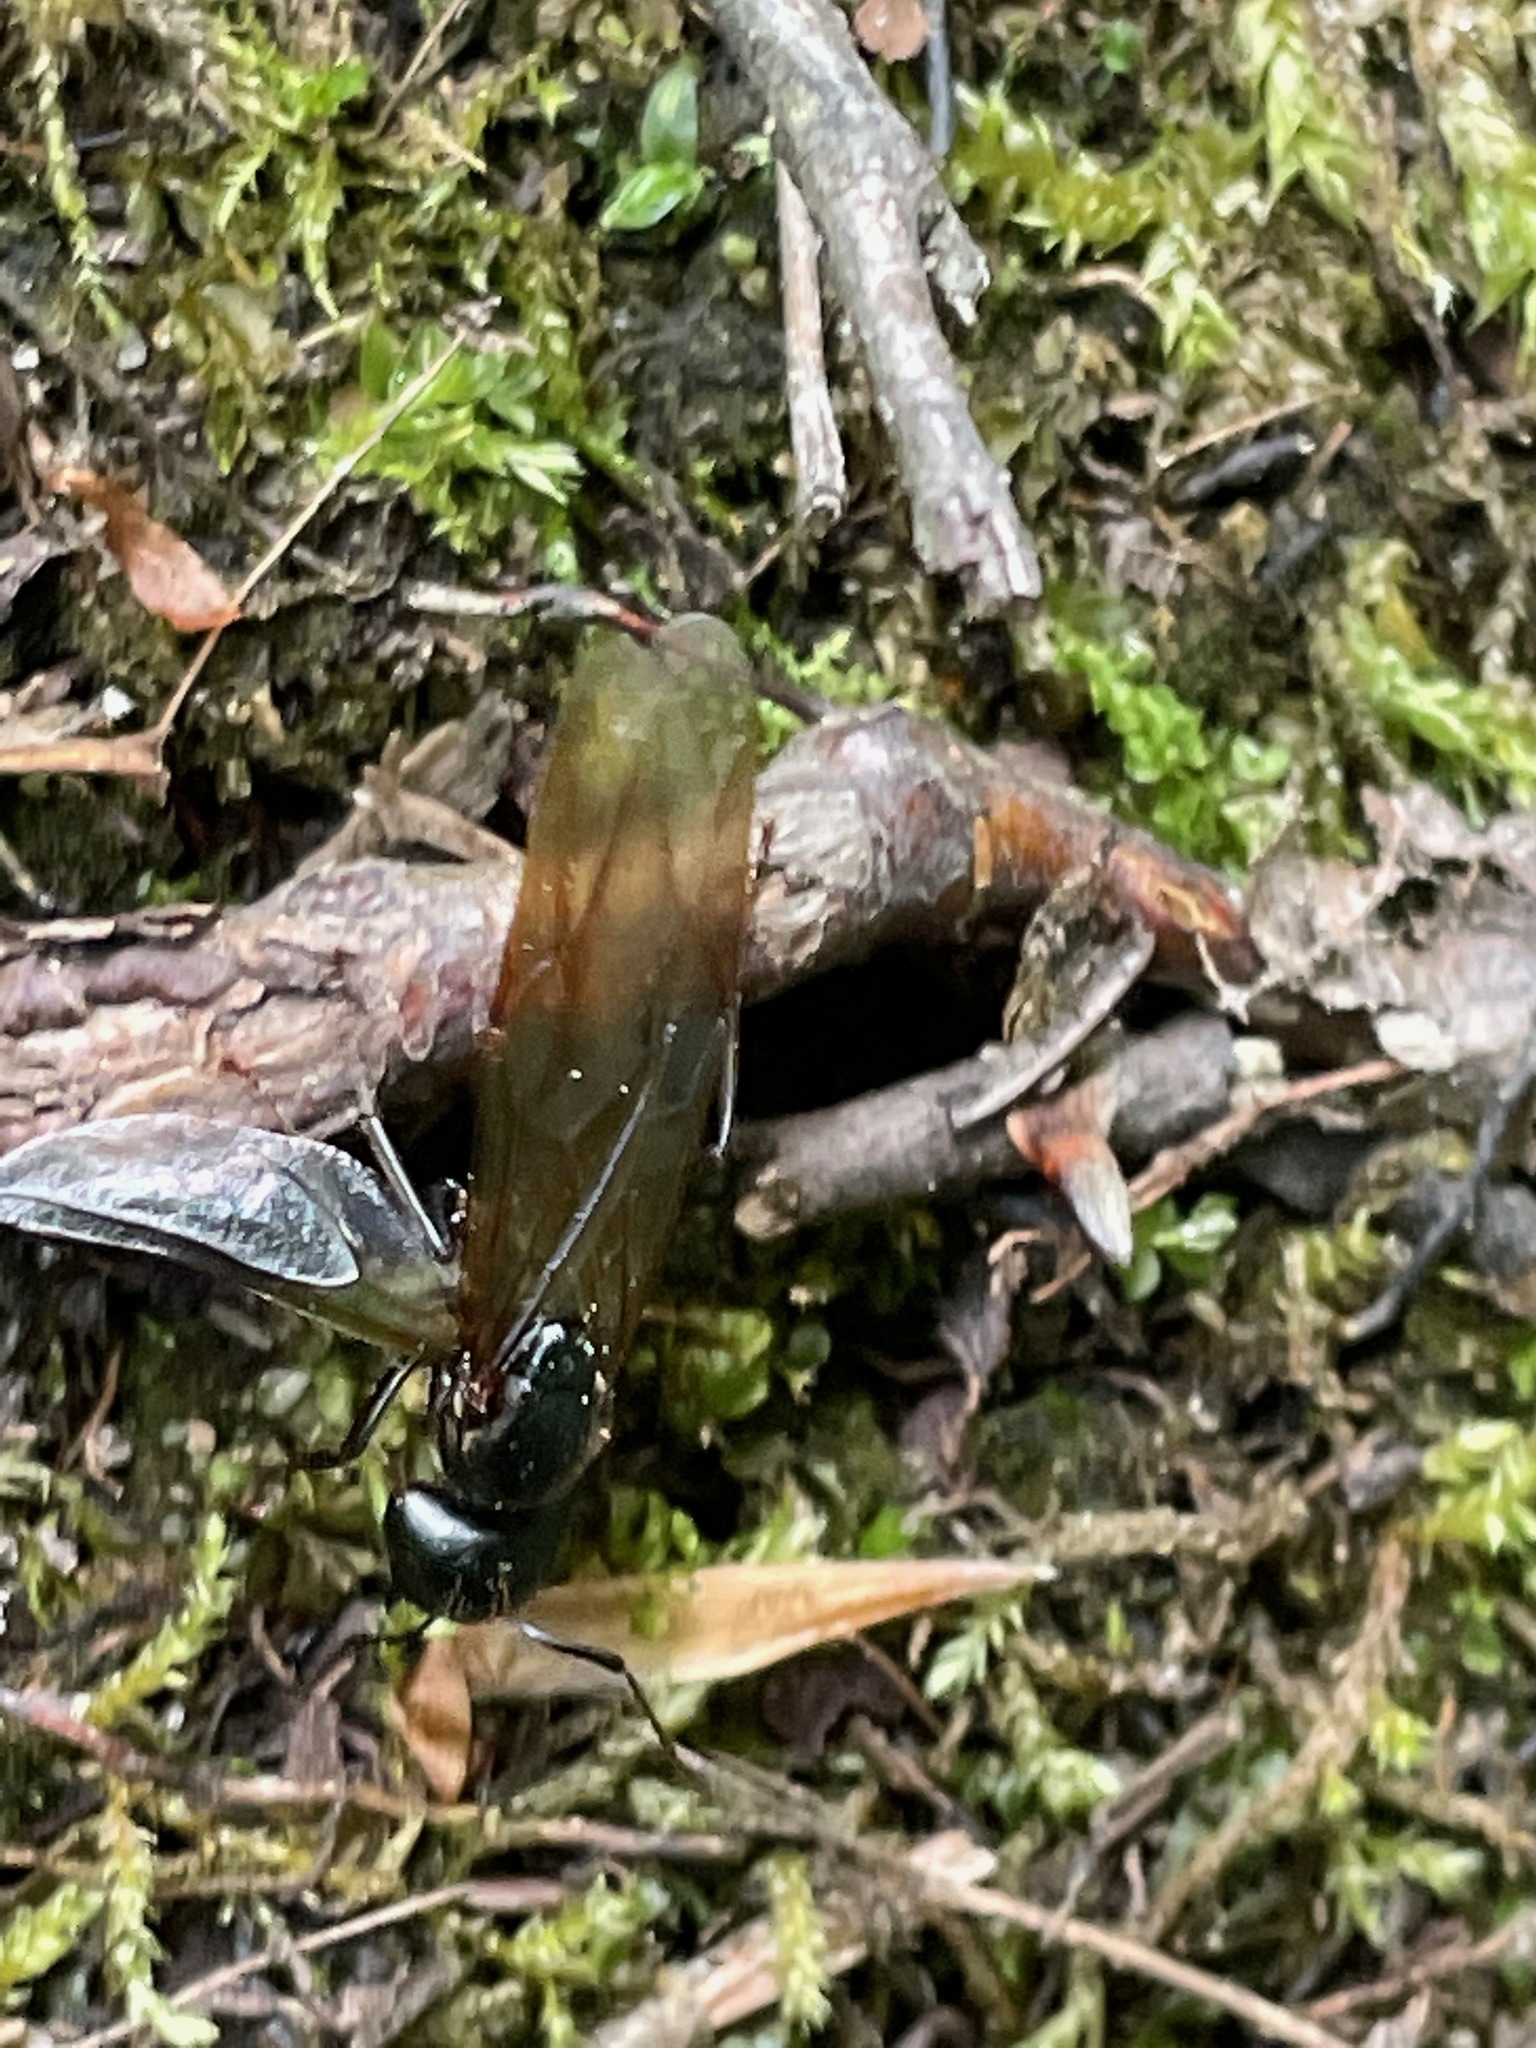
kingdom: Animalia
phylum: Arthropoda
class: Insecta
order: Hymenoptera
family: Formicidae
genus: Camponotus
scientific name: Camponotus pennsylvanicus
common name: Black carpenter ant
